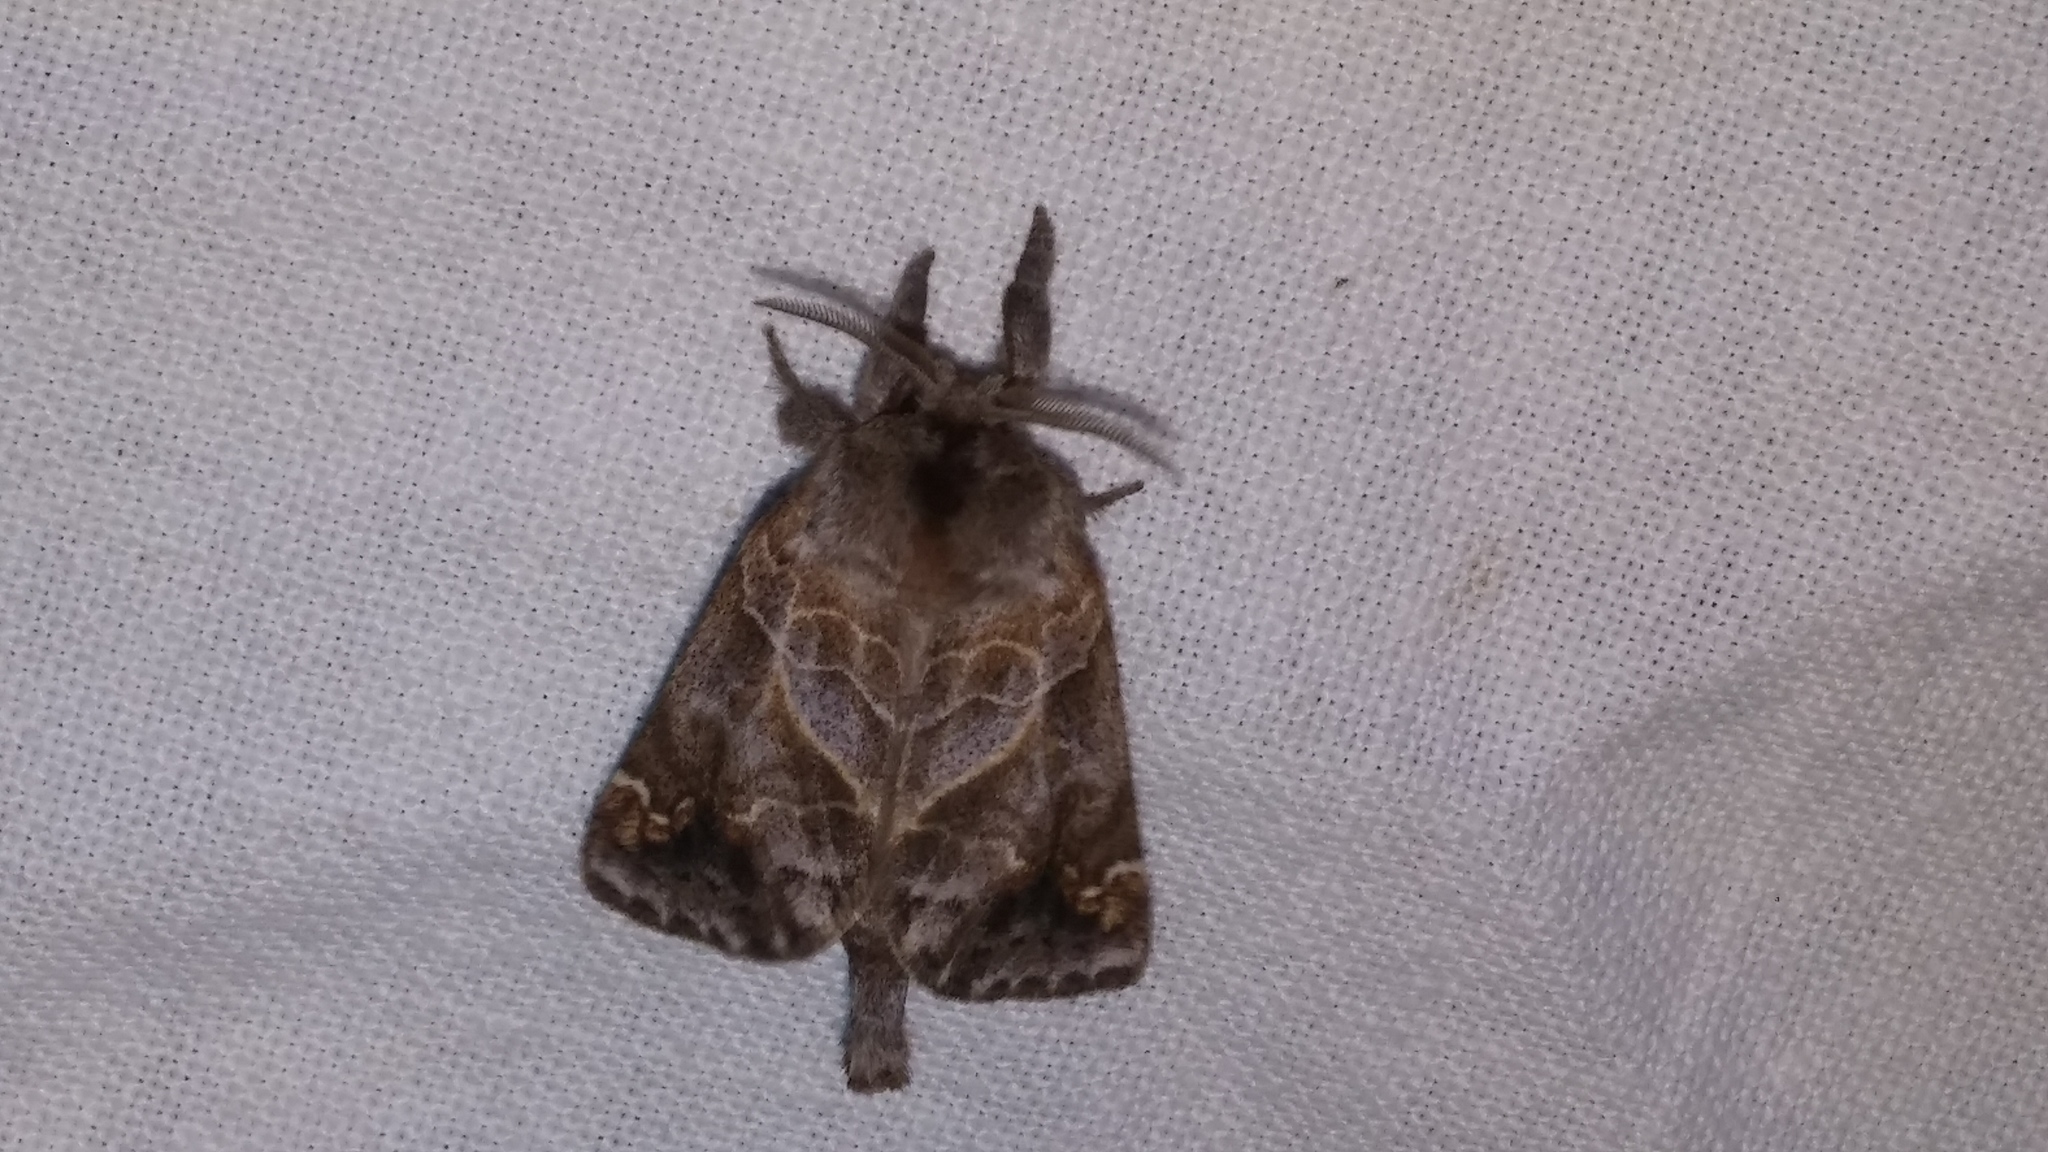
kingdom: Animalia
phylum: Arthropoda
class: Insecta
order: Lepidoptera
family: Notodontidae
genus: Clostera
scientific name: Clostera strigosa
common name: Striped chocolate-tip moth
